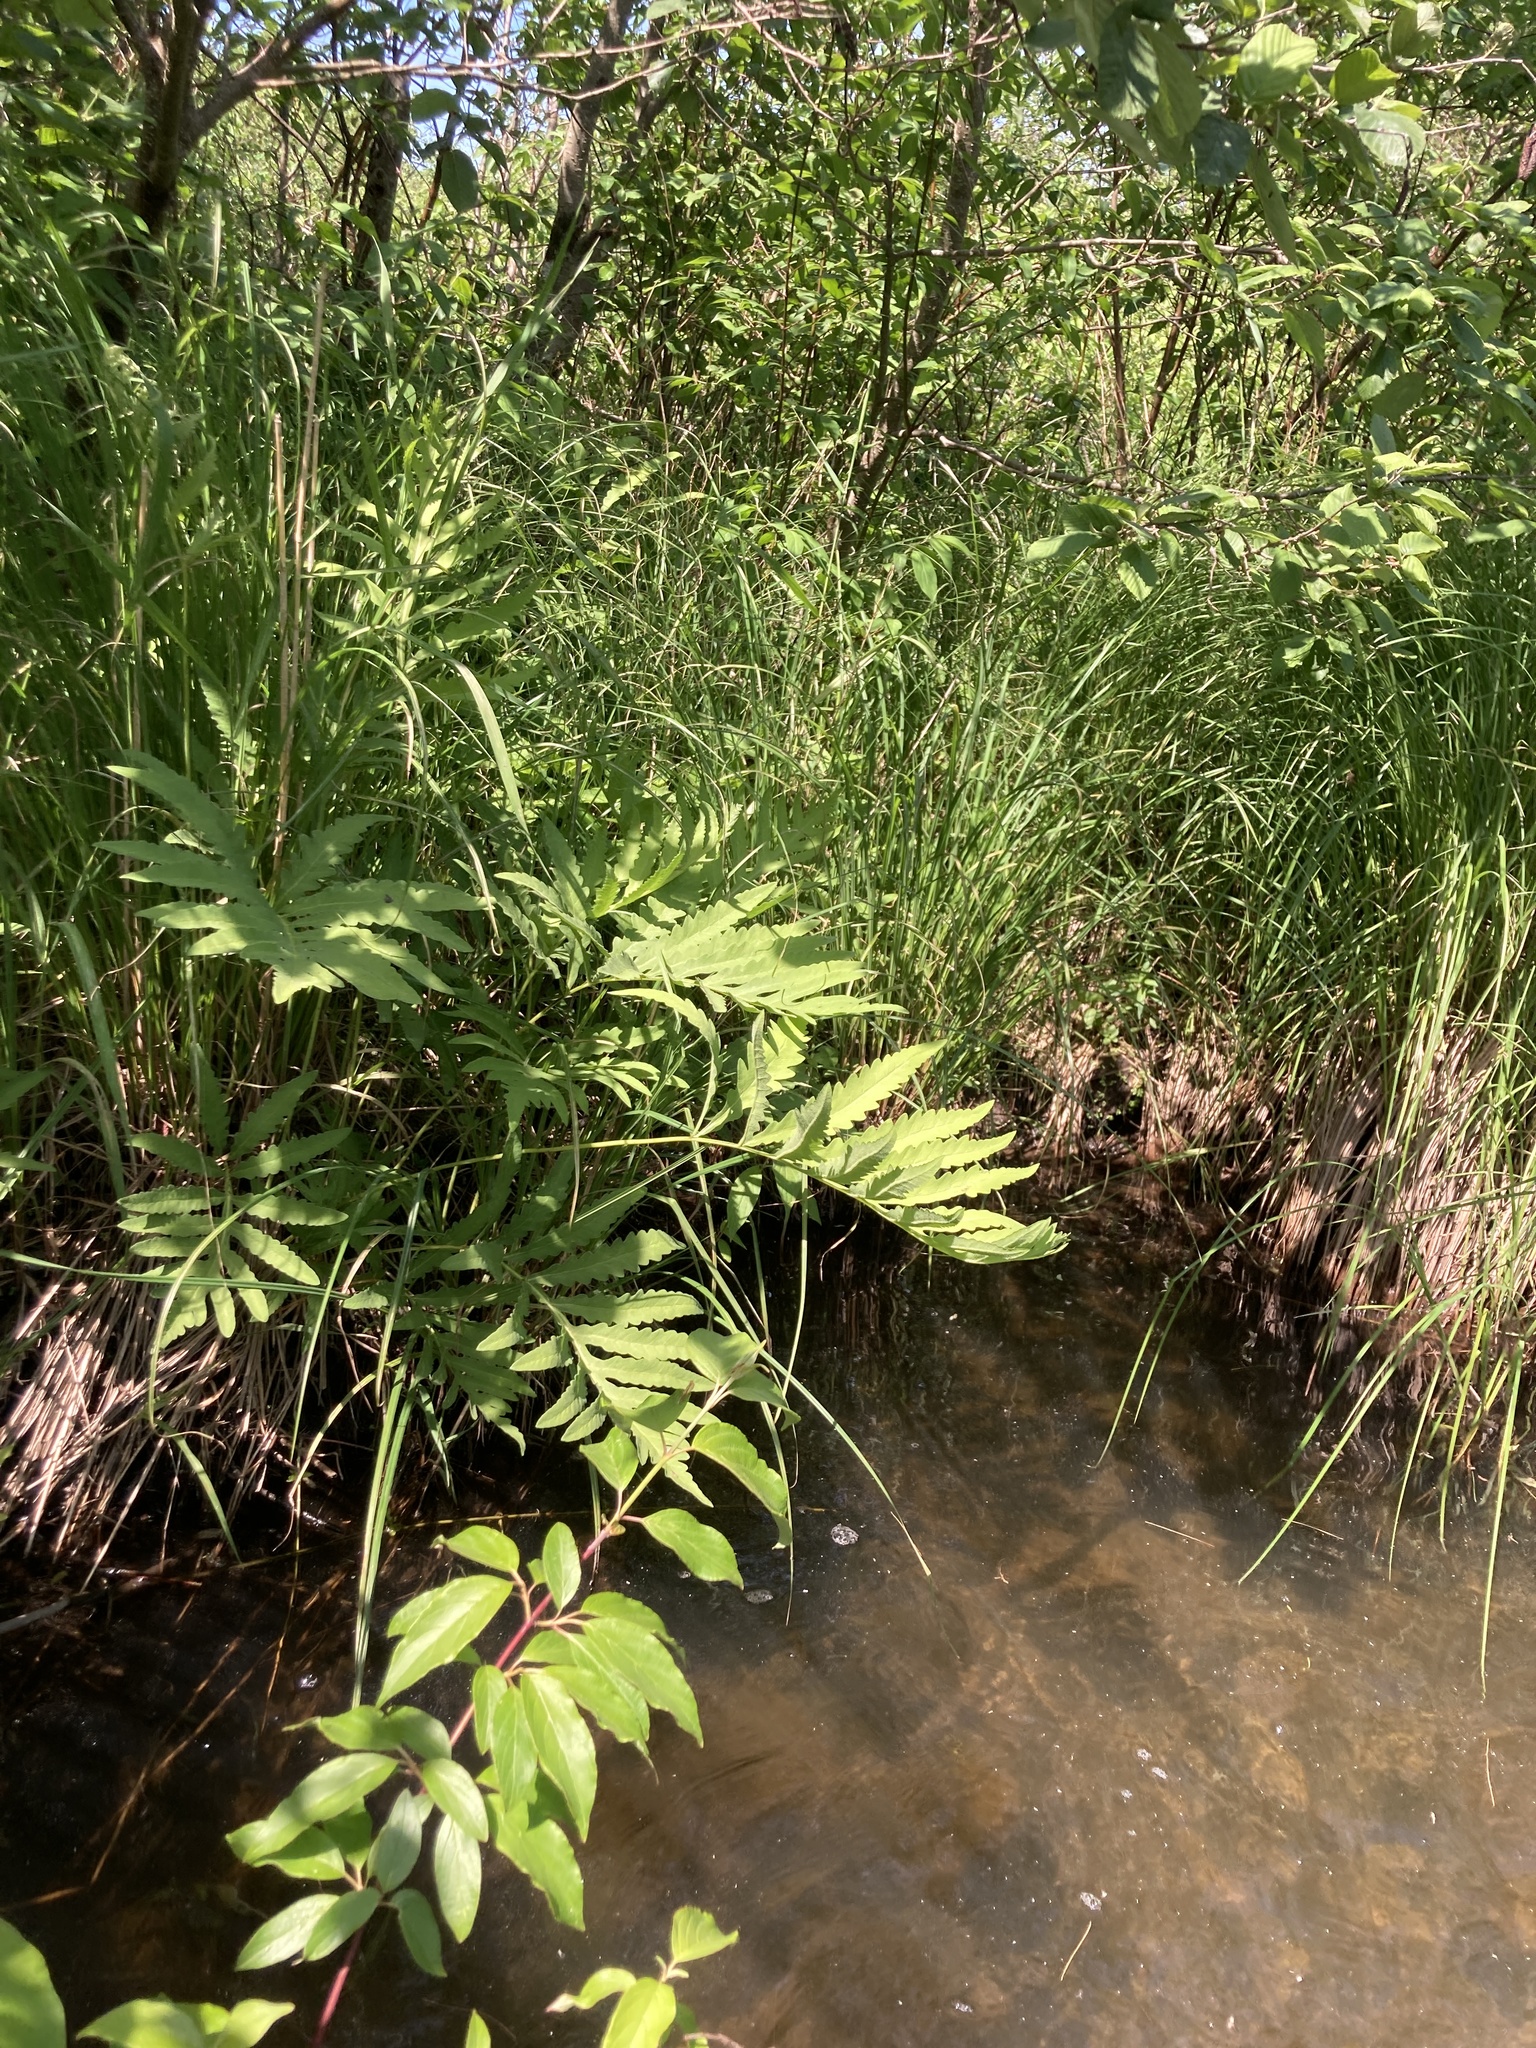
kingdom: Plantae
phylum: Tracheophyta
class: Polypodiopsida
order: Polypodiales
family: Onocleaceae
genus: Onoclea
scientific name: Onoclea sensibilis
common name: Sensitive fern
